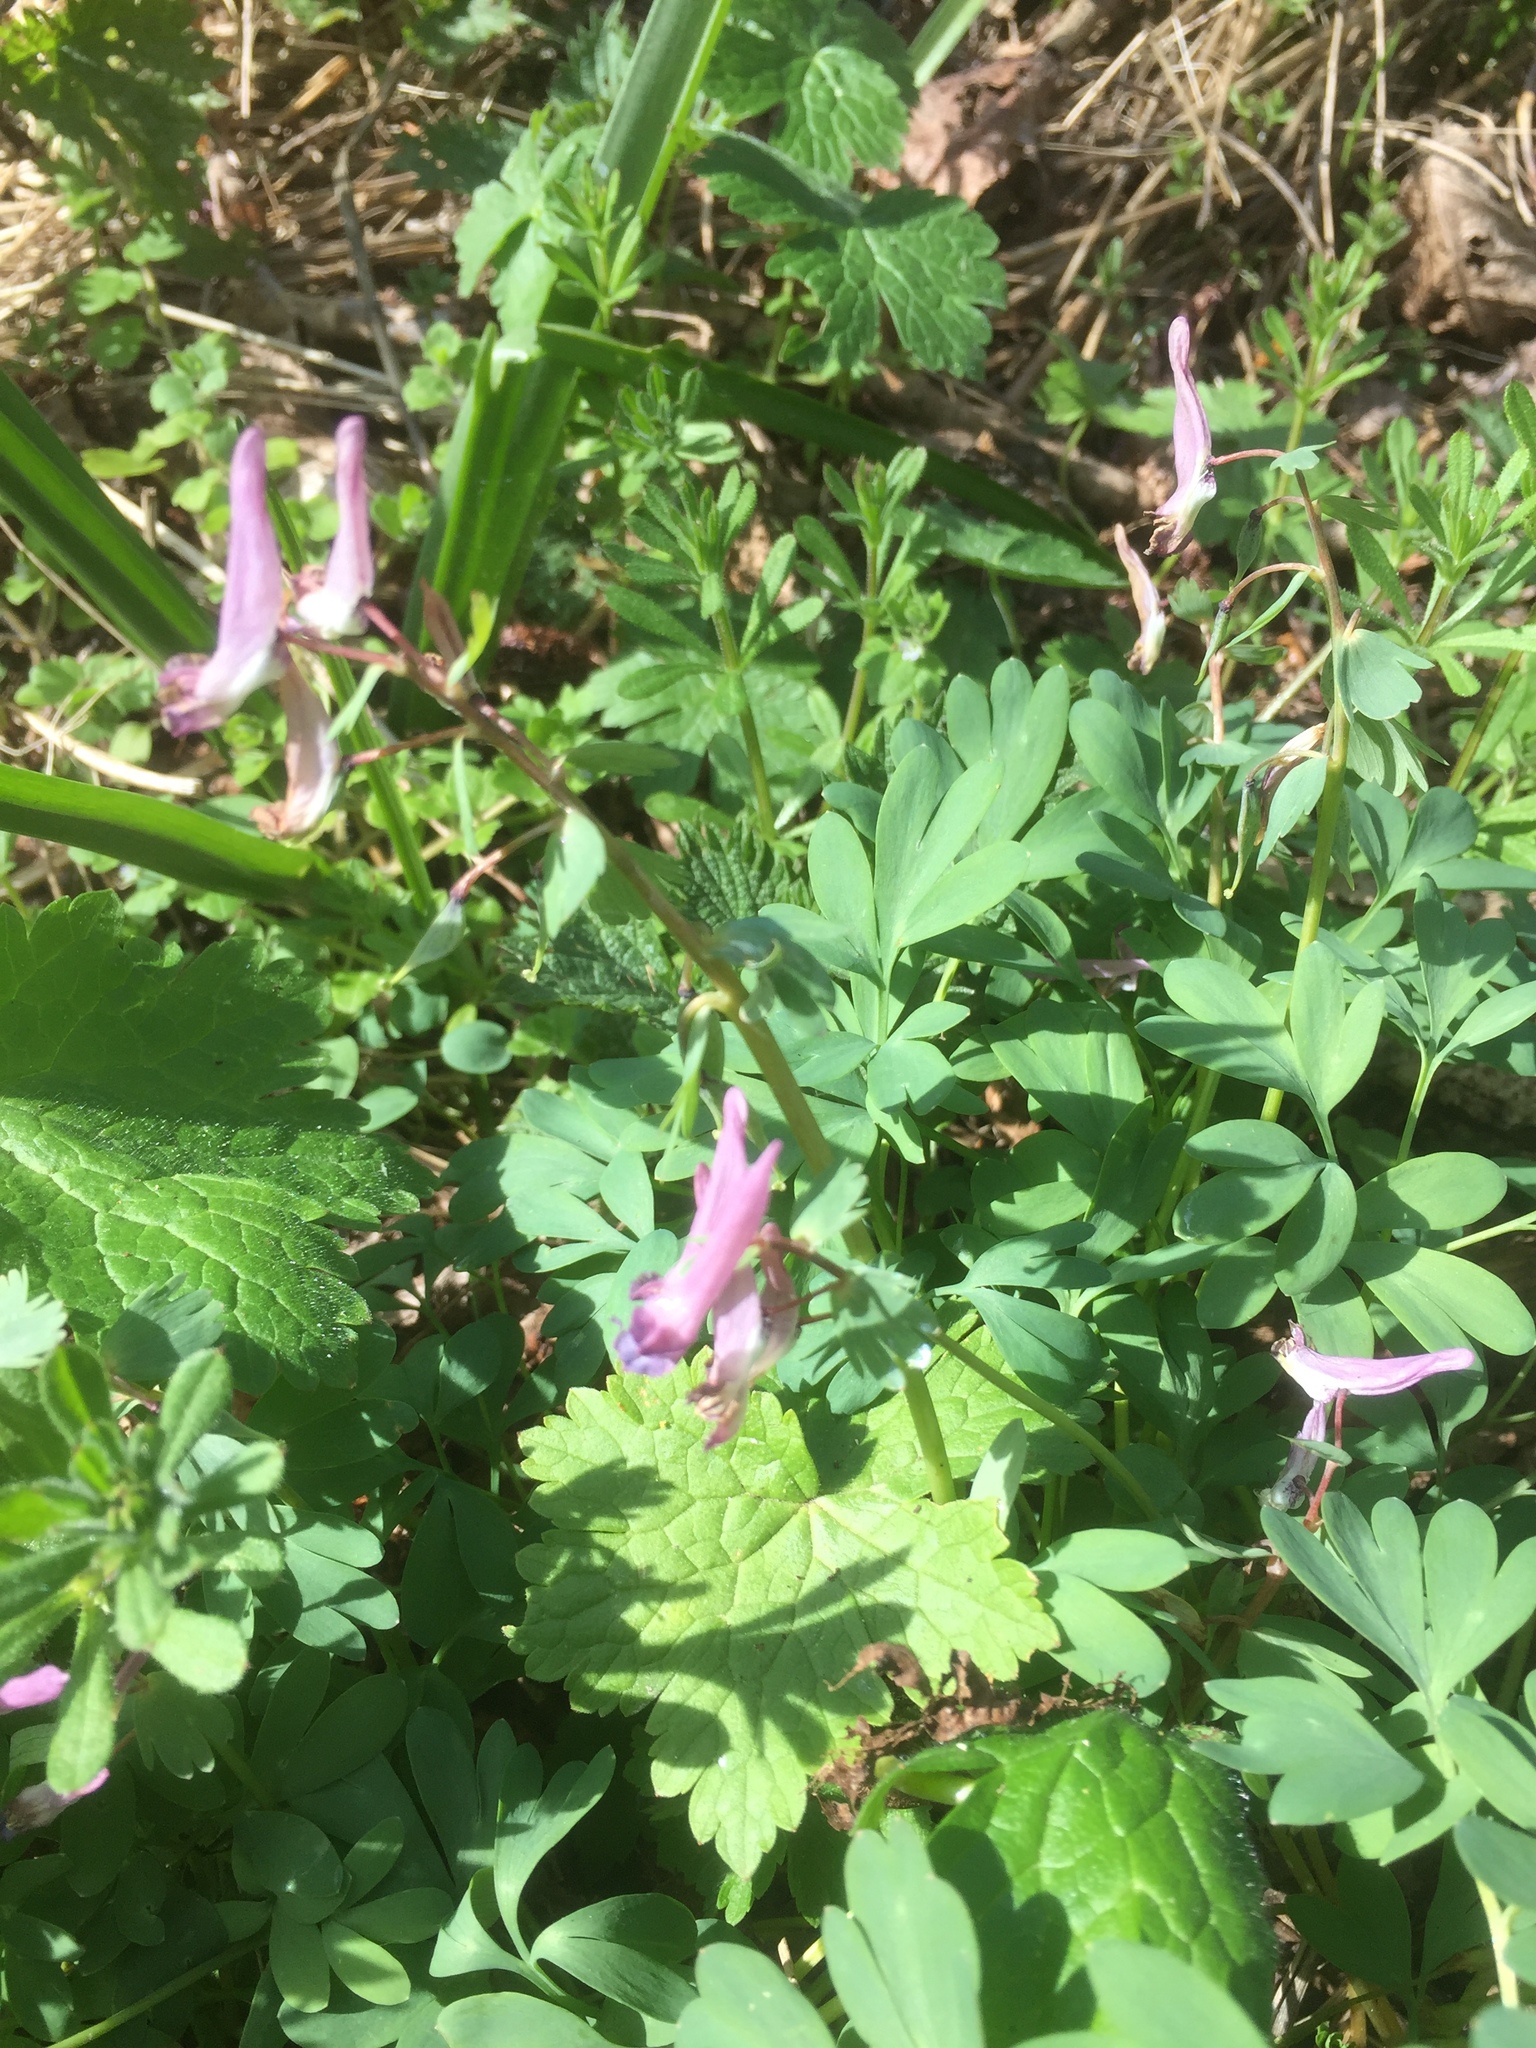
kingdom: Plantae
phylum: Tracheophyta
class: Magnoliopsida
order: Ranunculales
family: Papaveraceae
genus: Corydalis
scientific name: Corydalis solida
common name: Bird-in-a-bush
